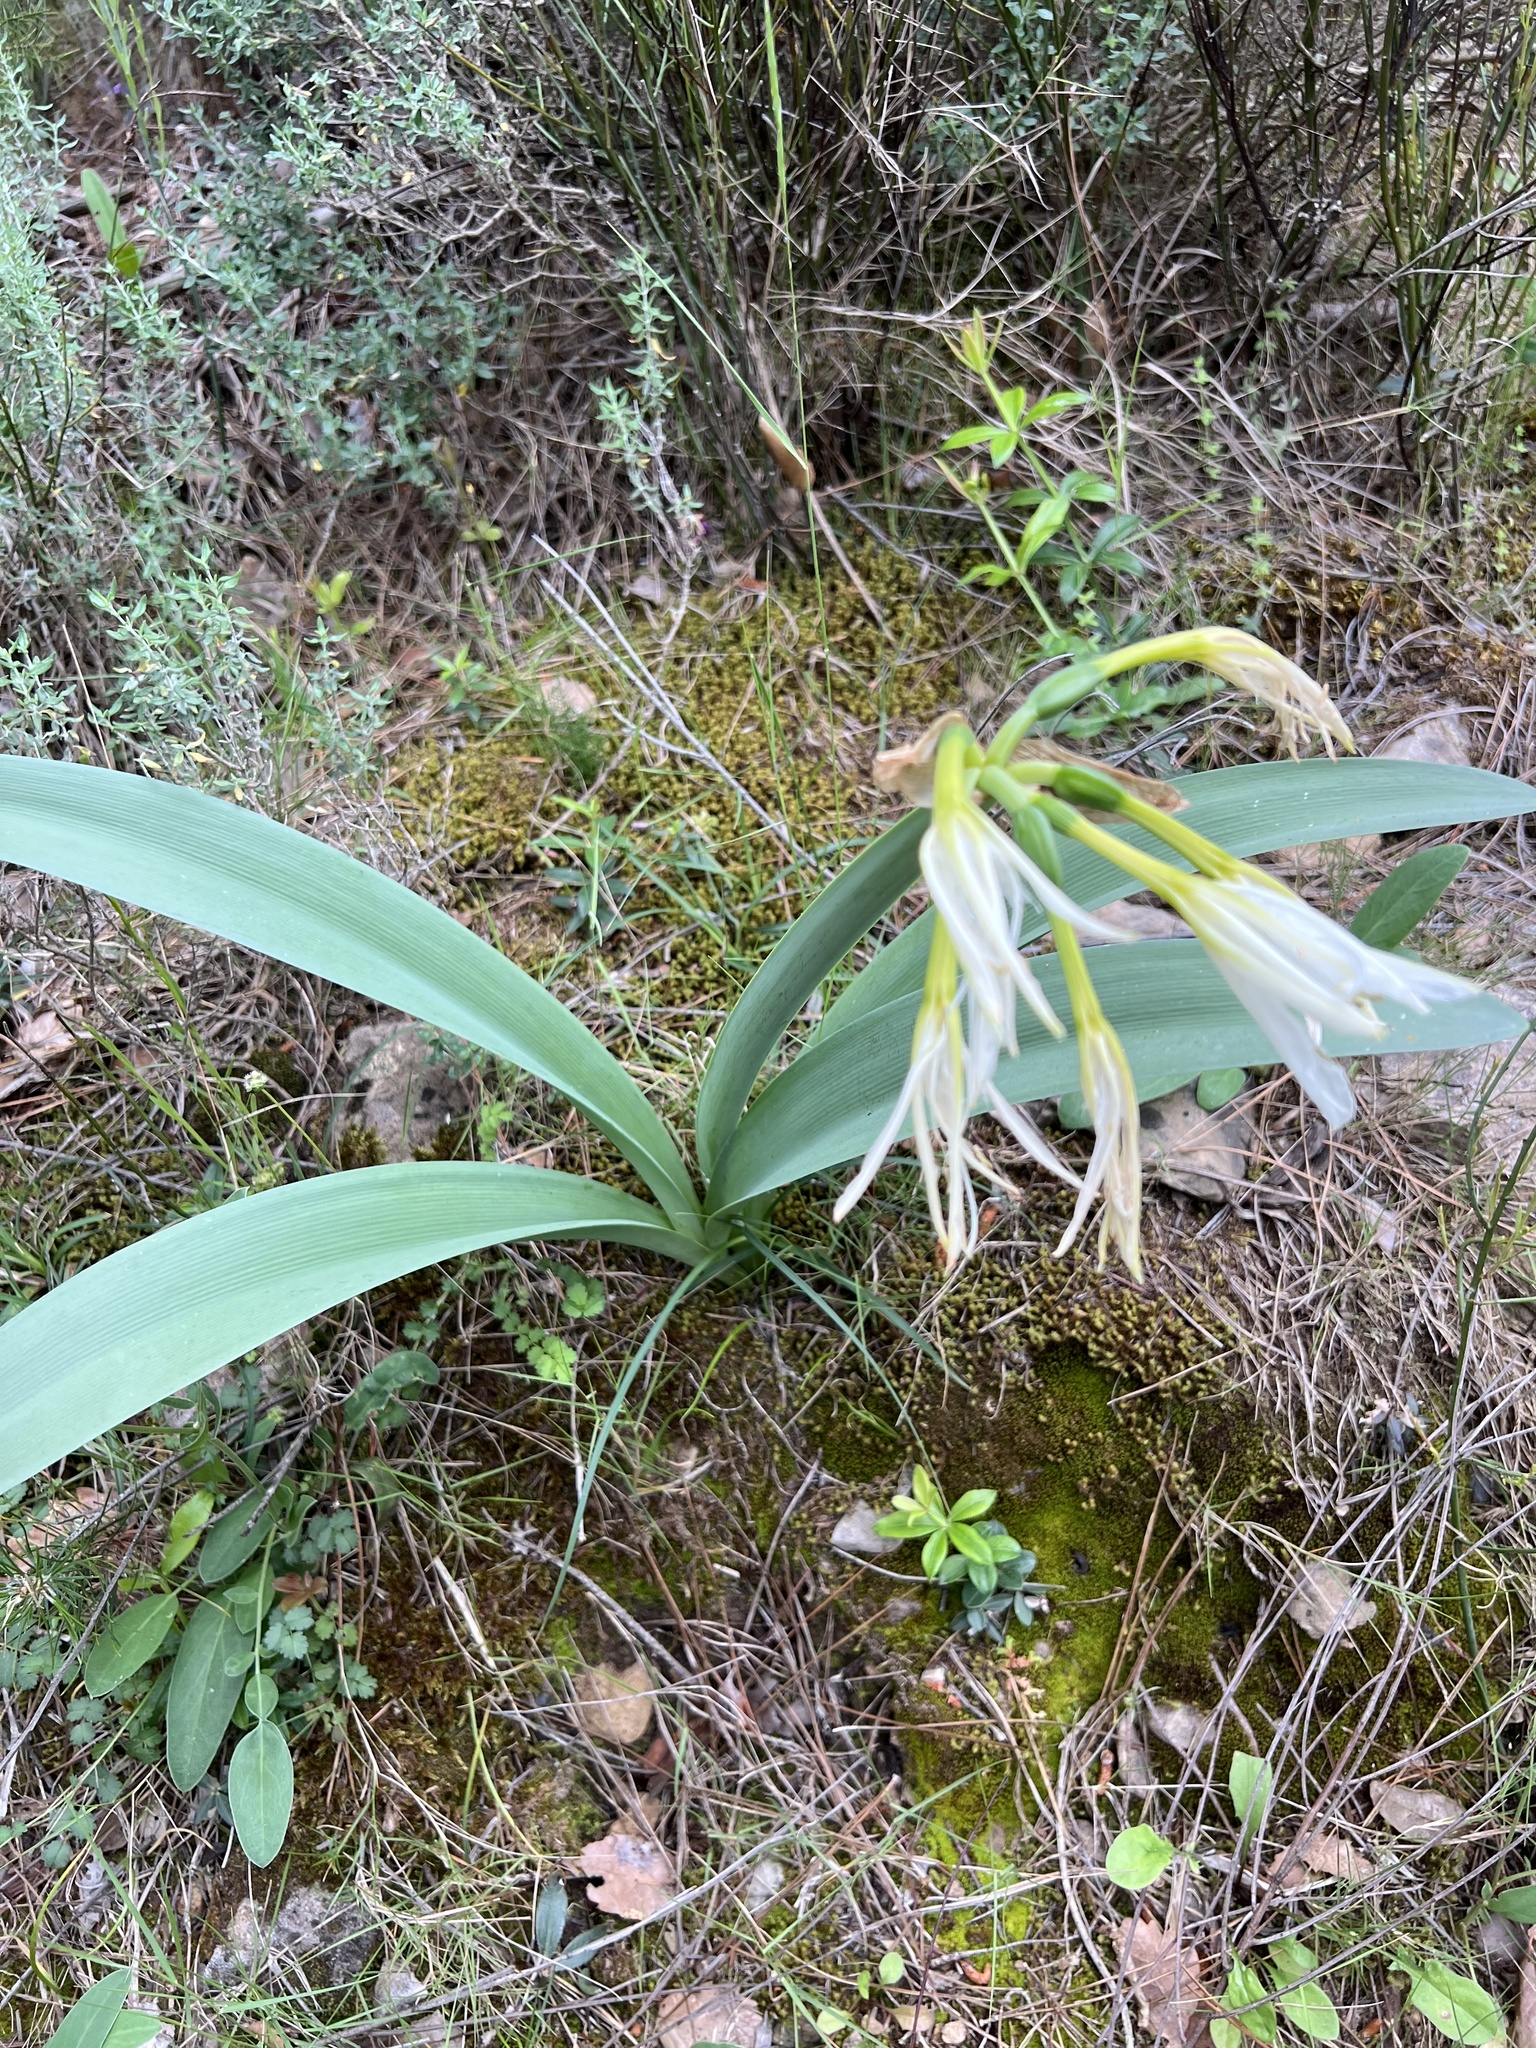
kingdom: Plantae
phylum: Tracheophyta
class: Liliopsida
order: Asparagales
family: Amaryllidaceae
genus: Pancratium
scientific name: Pancratium illyricum
